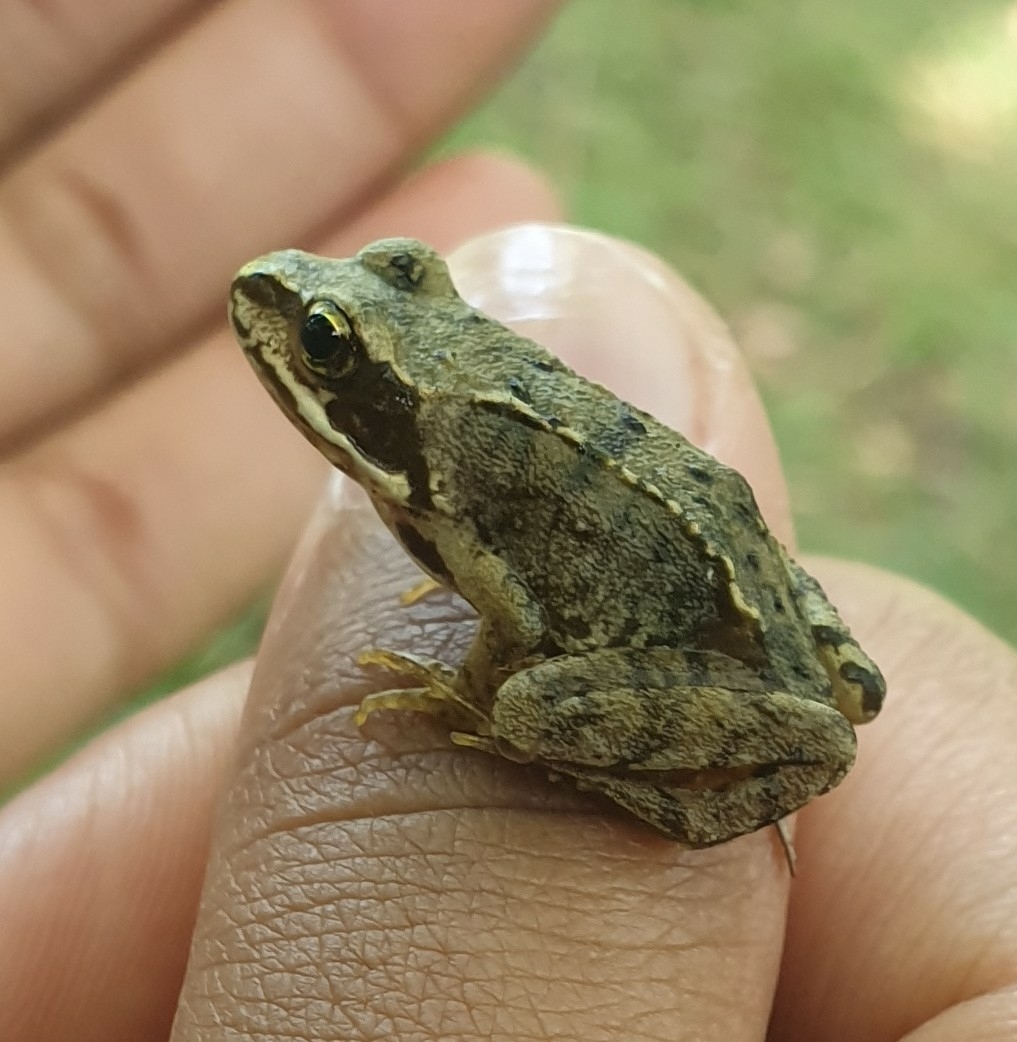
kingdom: Animalia
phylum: Chordata
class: Amphibia
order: Anura
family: Ranidae
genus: Rana
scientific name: Rana temporaria
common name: Common frog
